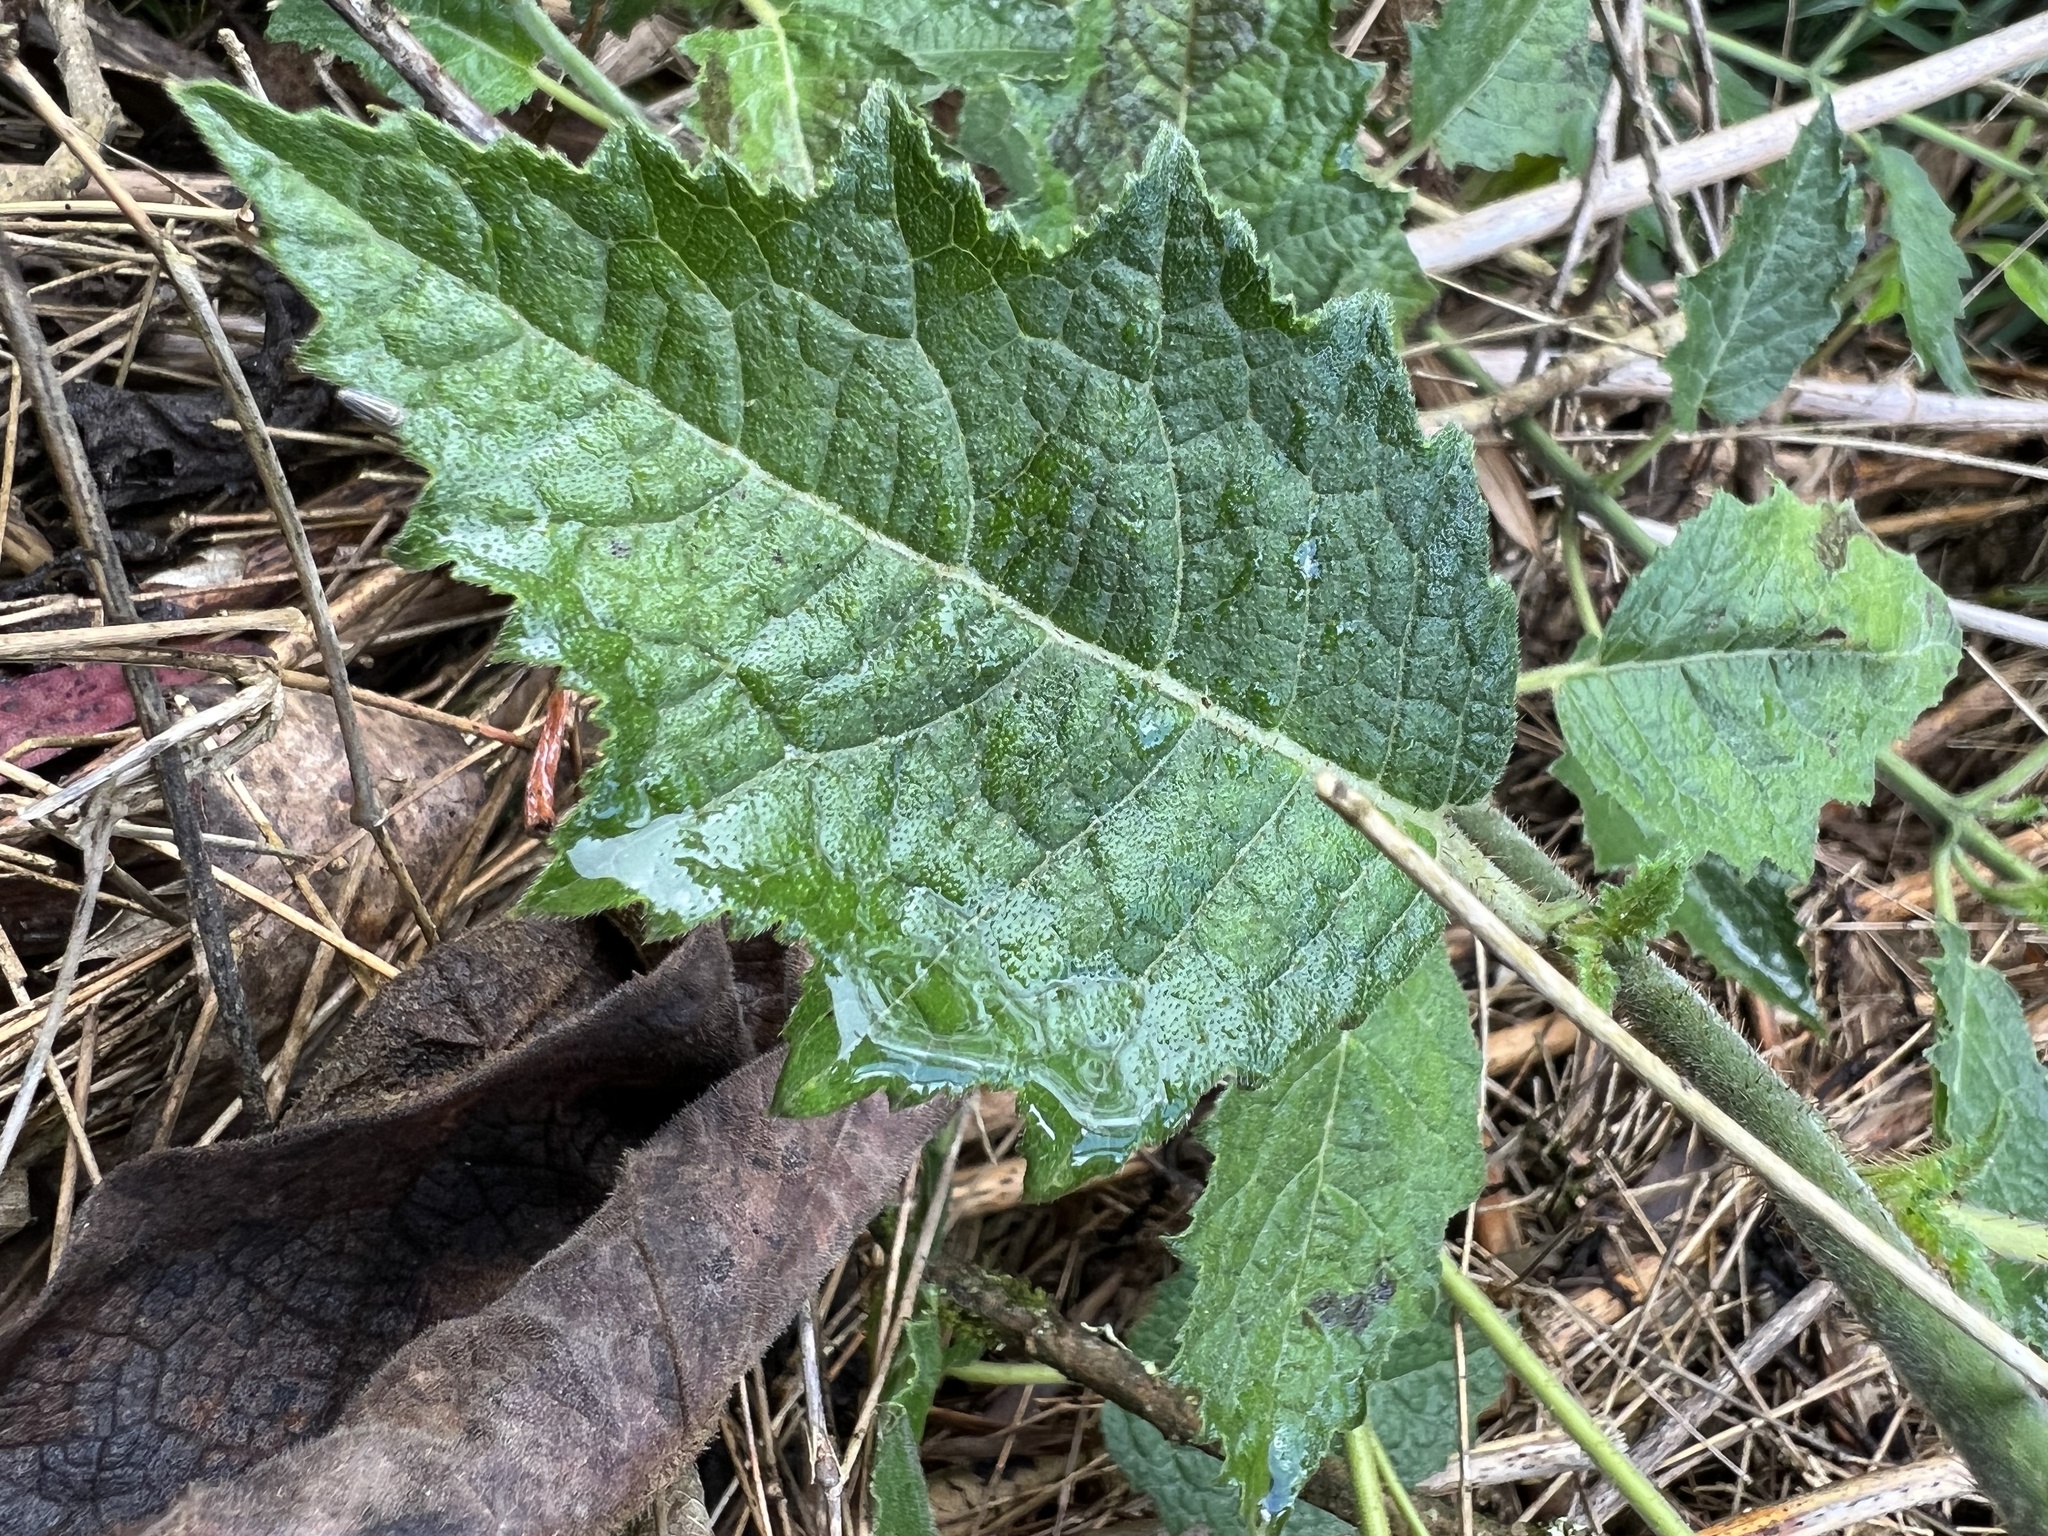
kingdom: Plantae
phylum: Tracheophyta
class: Magnoliopsida
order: Cornales
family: Loasaceae
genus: Nasa
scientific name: Nasa campaniflora
